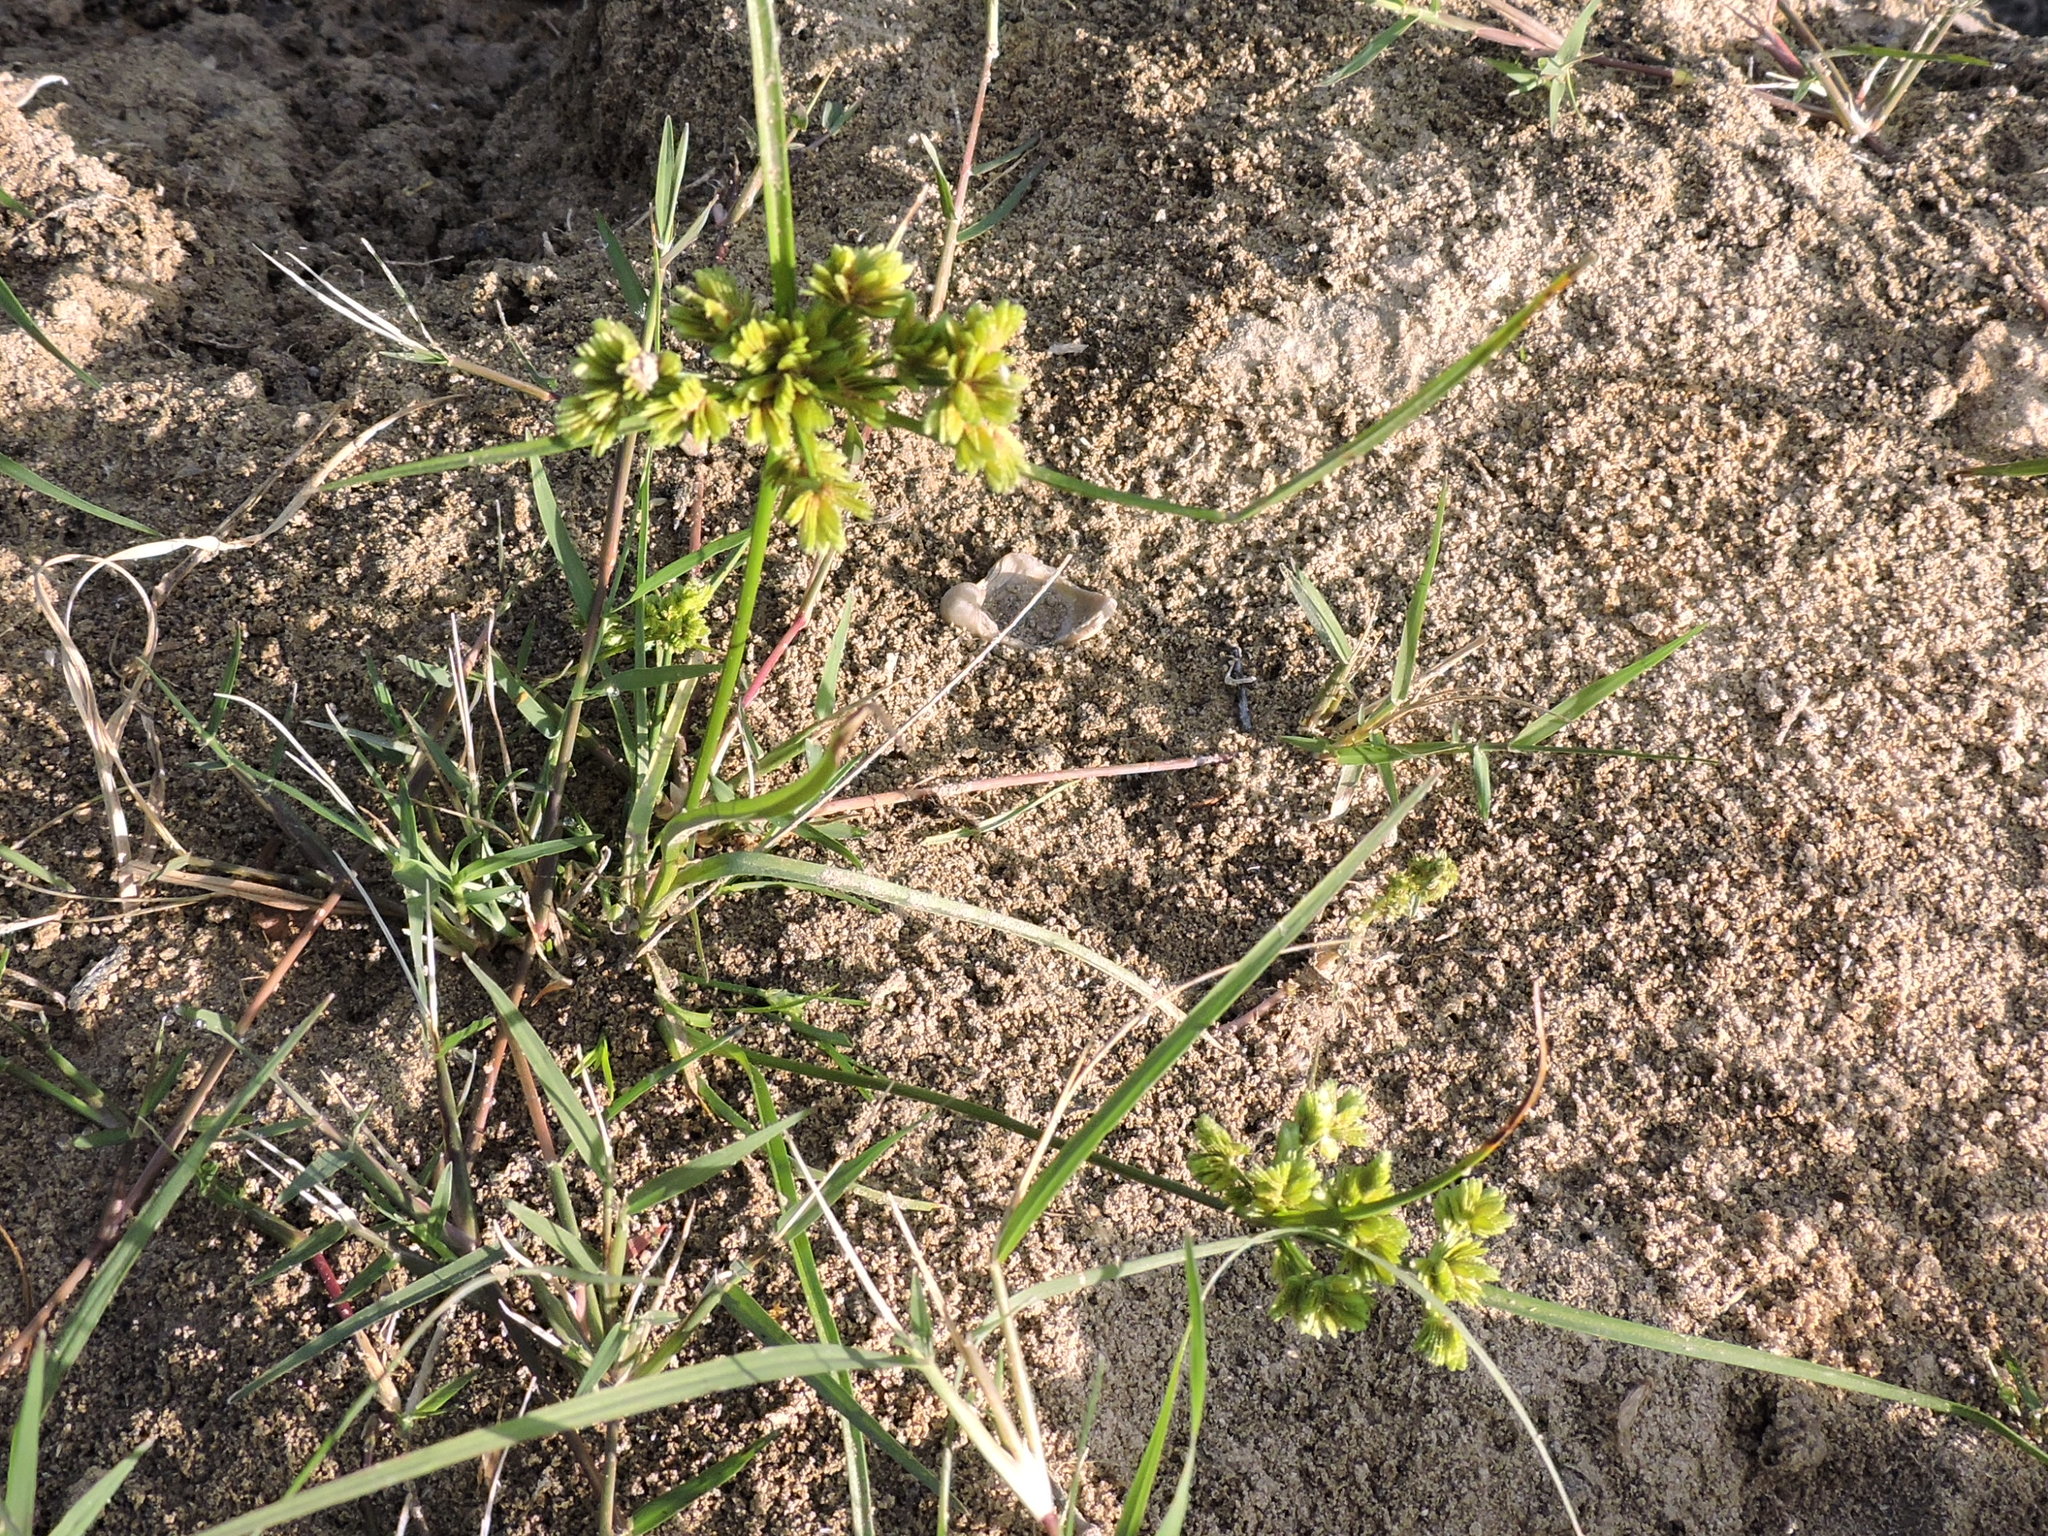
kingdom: Plantae
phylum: Tracheophyta
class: Liliopsida
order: Poales
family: Cyperaceae
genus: Cyperus
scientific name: Cyperus surinamensis
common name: Tropical flat sedge
